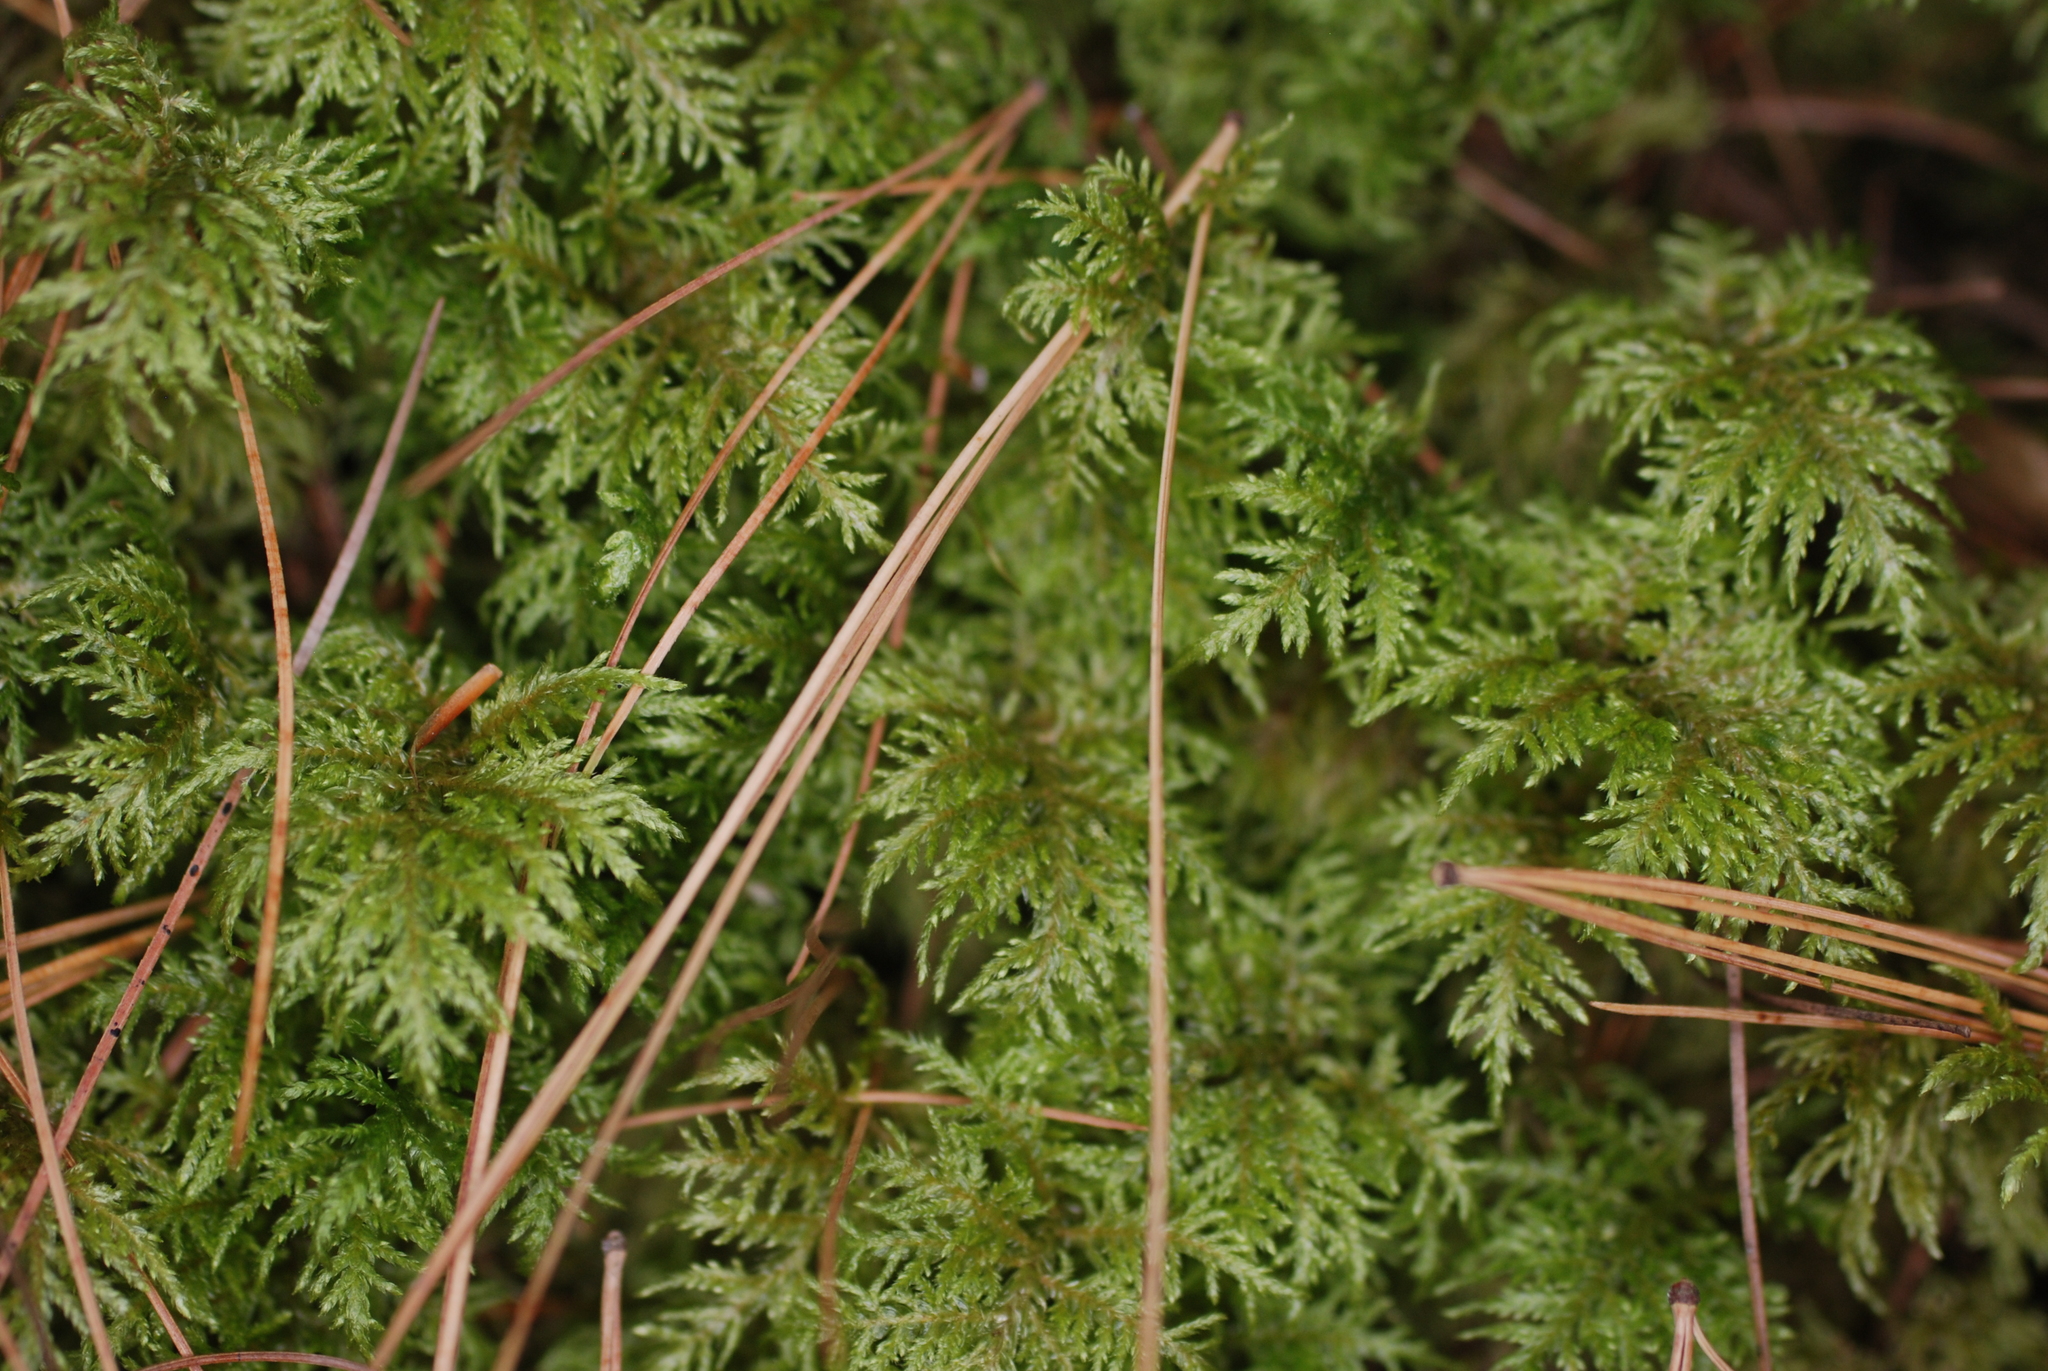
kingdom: Plantae
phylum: Bryophyta
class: Bryopsida
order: Hypnales
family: Hylocomiaceae
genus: Hylocomium
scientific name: Hylocomium splendens
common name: Stairstep moss
